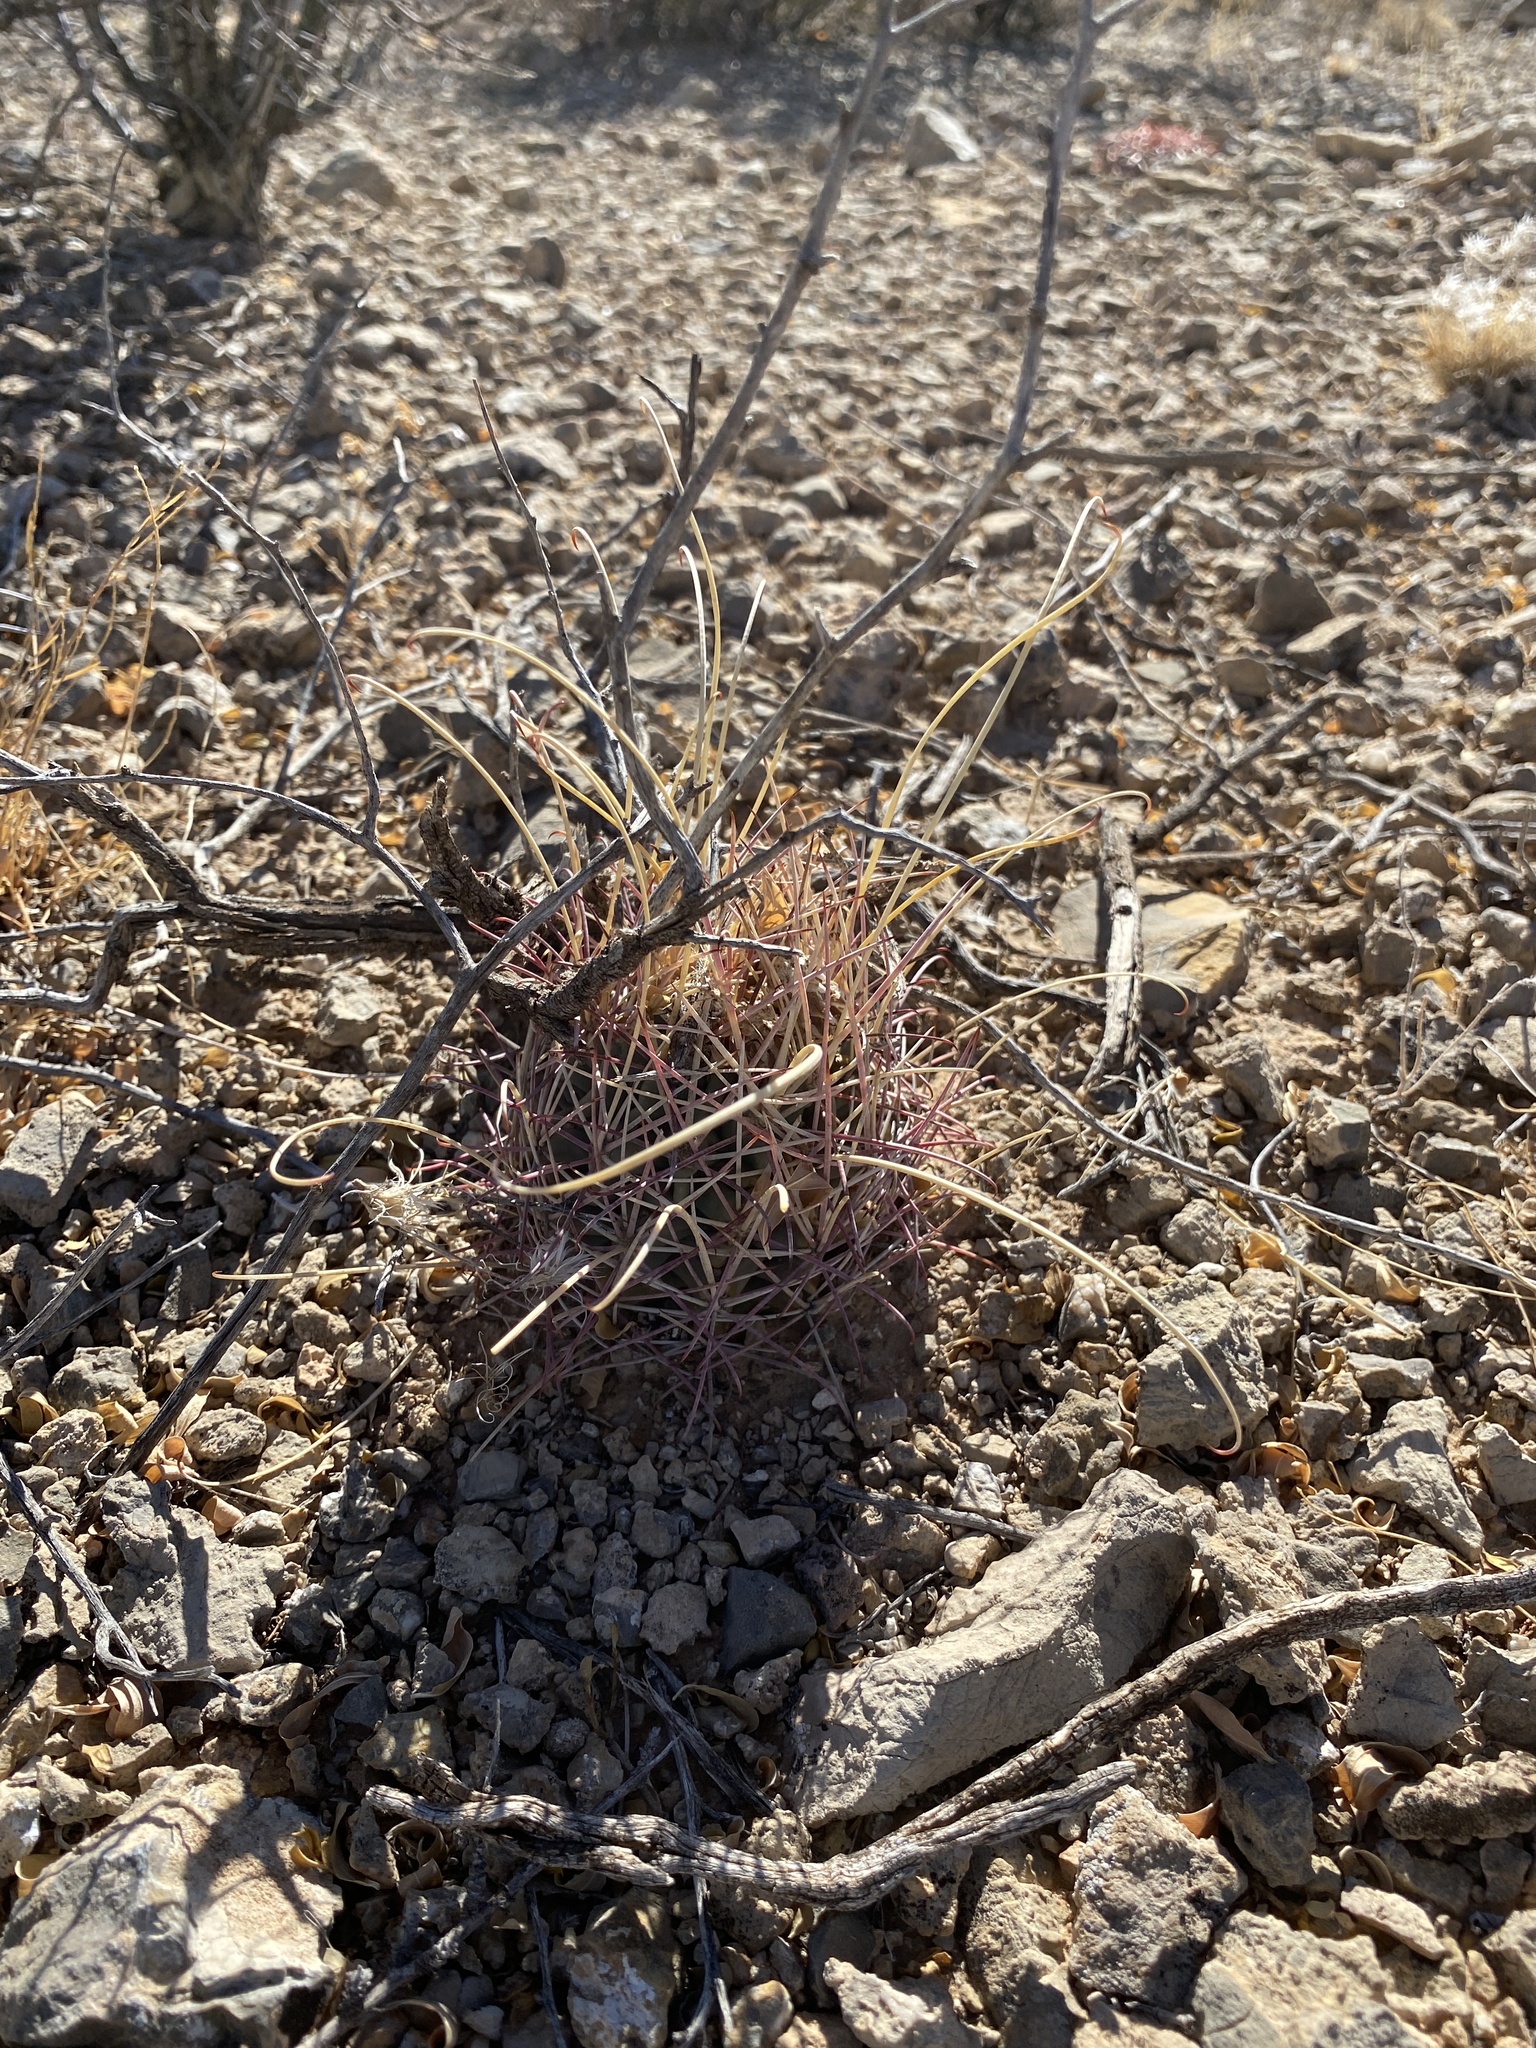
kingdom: Plantae
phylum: Tracheophyta
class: Magnoliopsida
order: Caryophyllales
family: Cactaceae
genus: Ferocactus
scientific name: Ferocactus uncinatus
